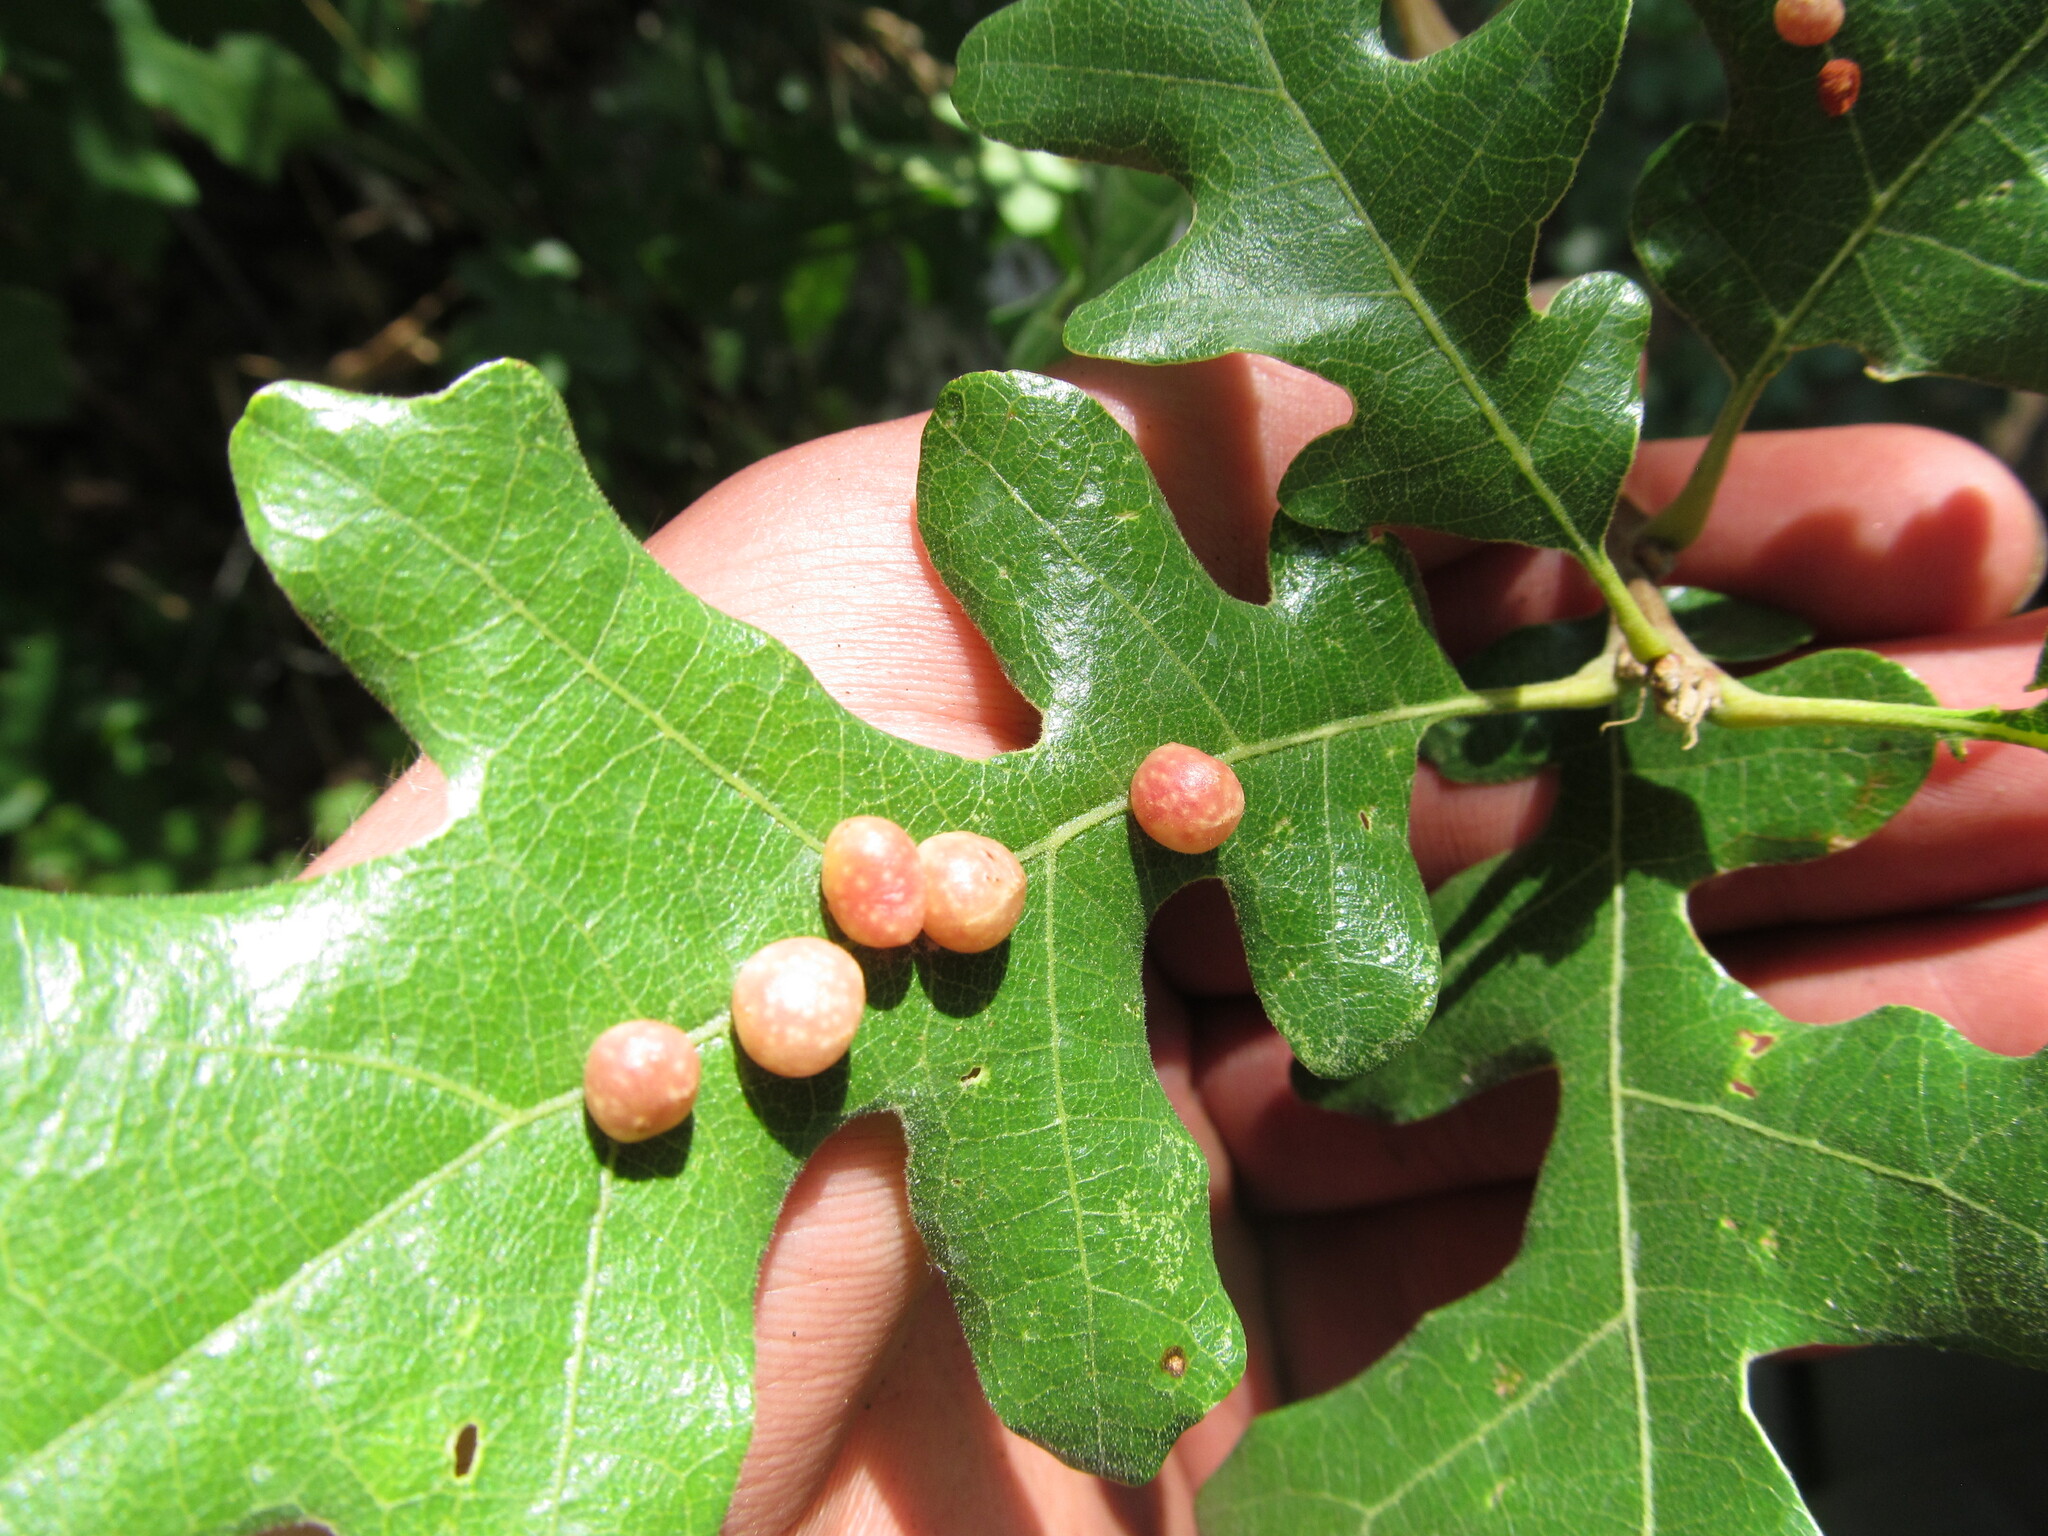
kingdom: Animalia
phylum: Arthropoda
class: Insecta
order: Hymenoptera
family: Cynipidae
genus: Trigonaspis
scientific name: Trigonaspis
